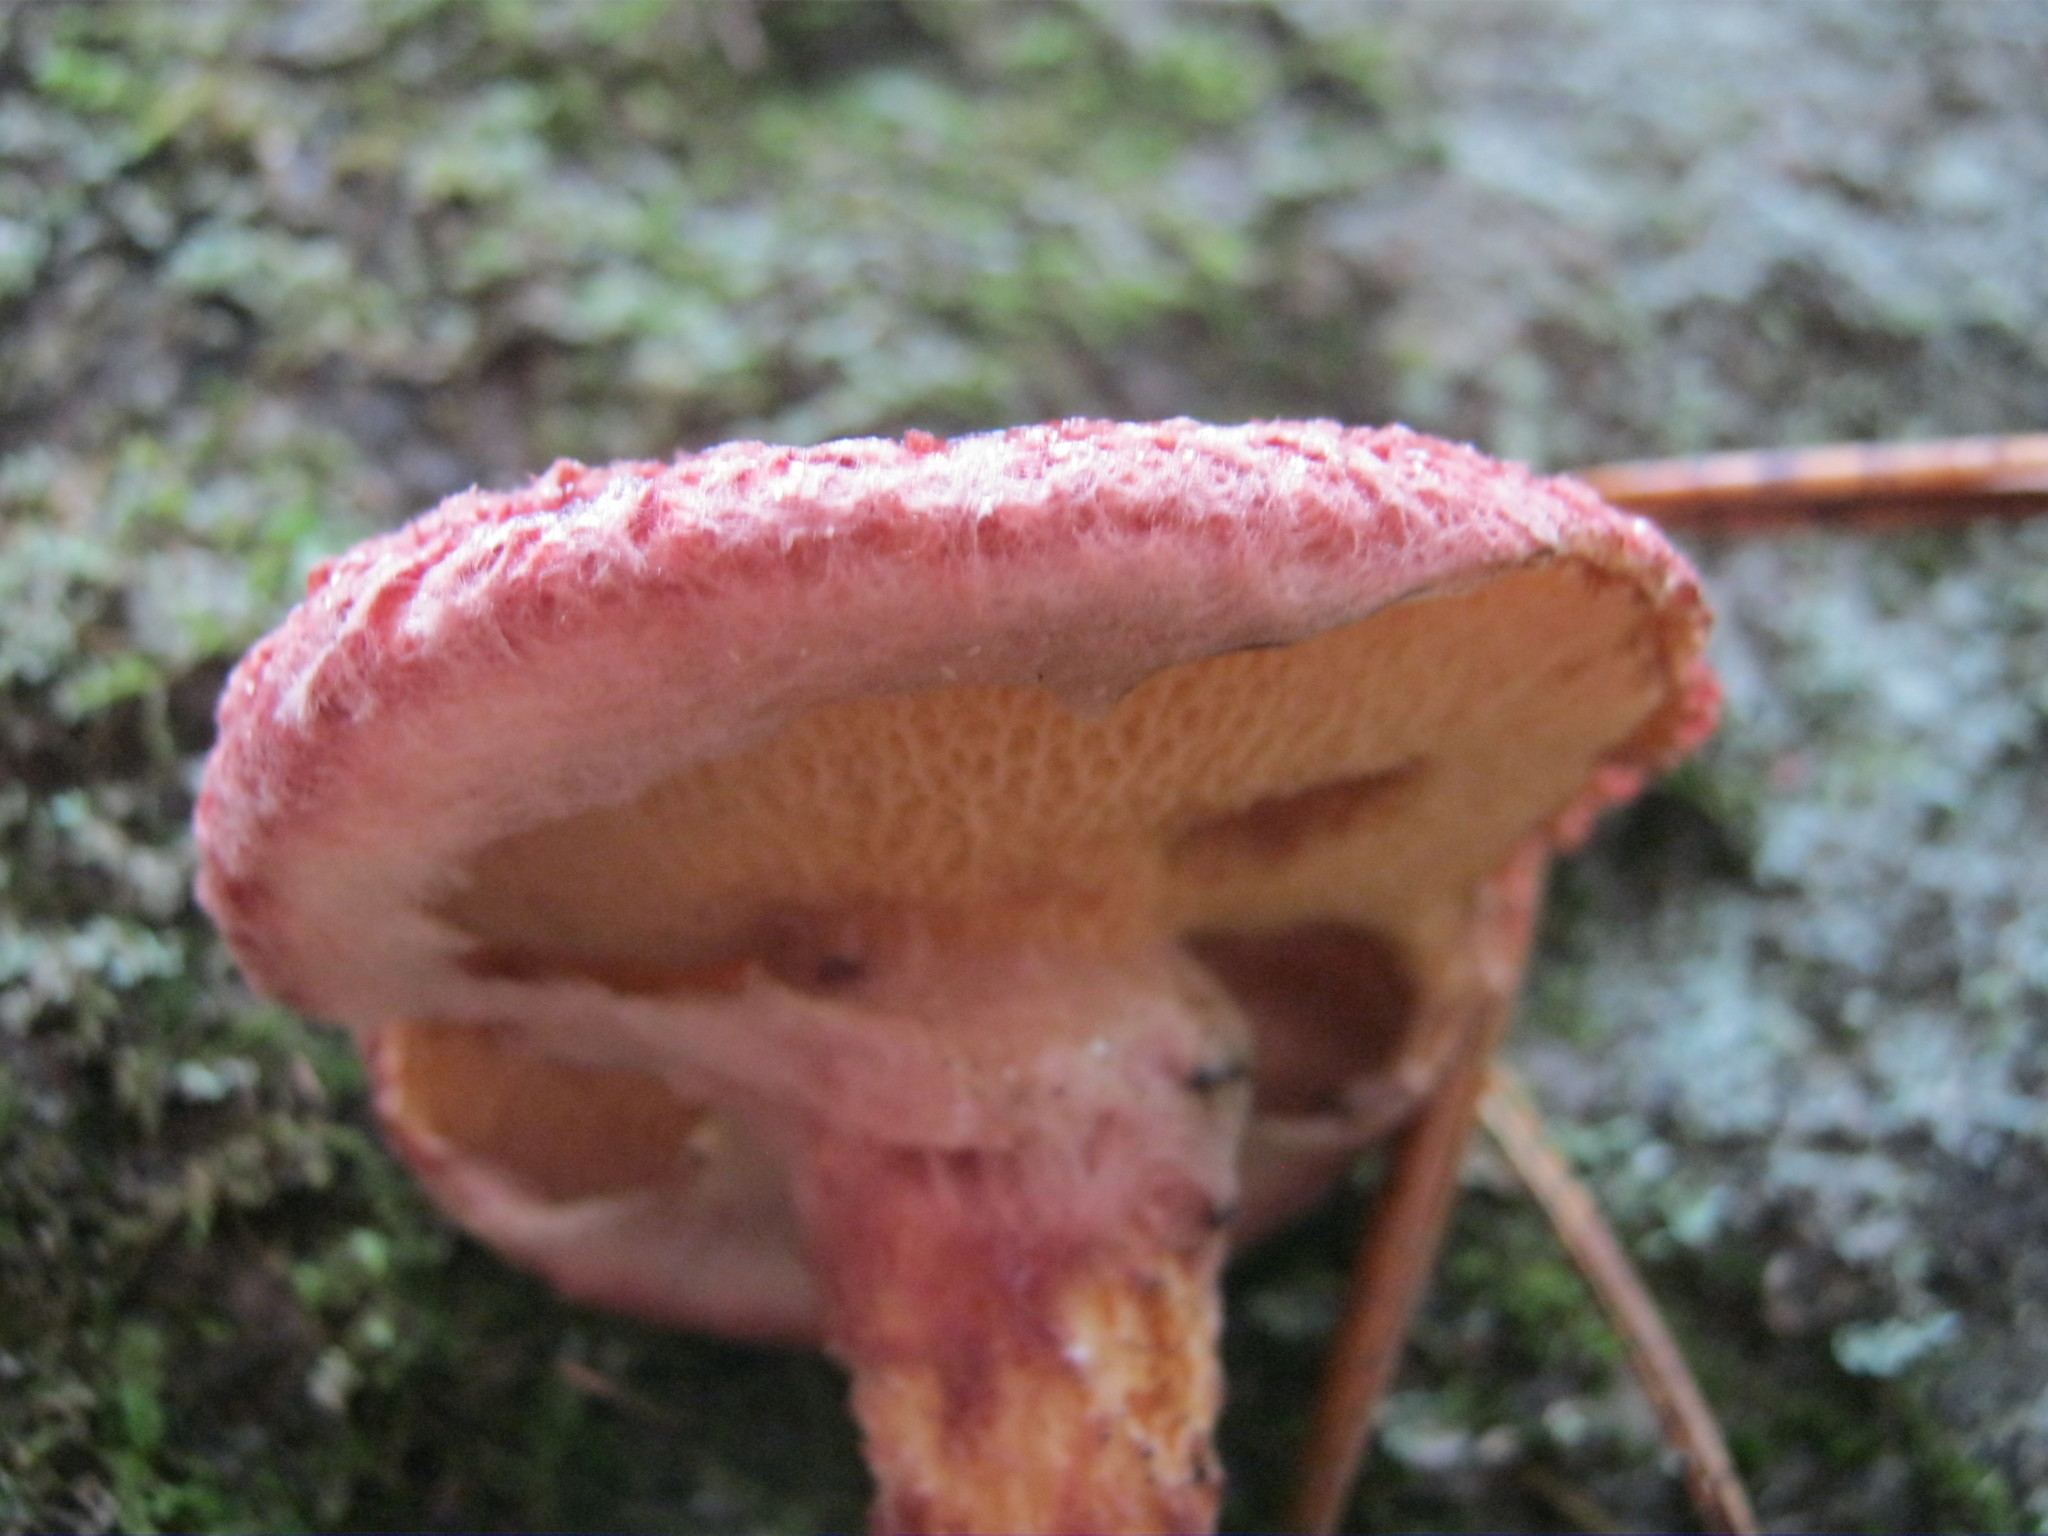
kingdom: Fungi
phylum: Basidiomycota
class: Agaricomycetes
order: Boletales
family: Suillaceae
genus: Suillus
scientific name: Suillus spraguei
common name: Painted suillus
